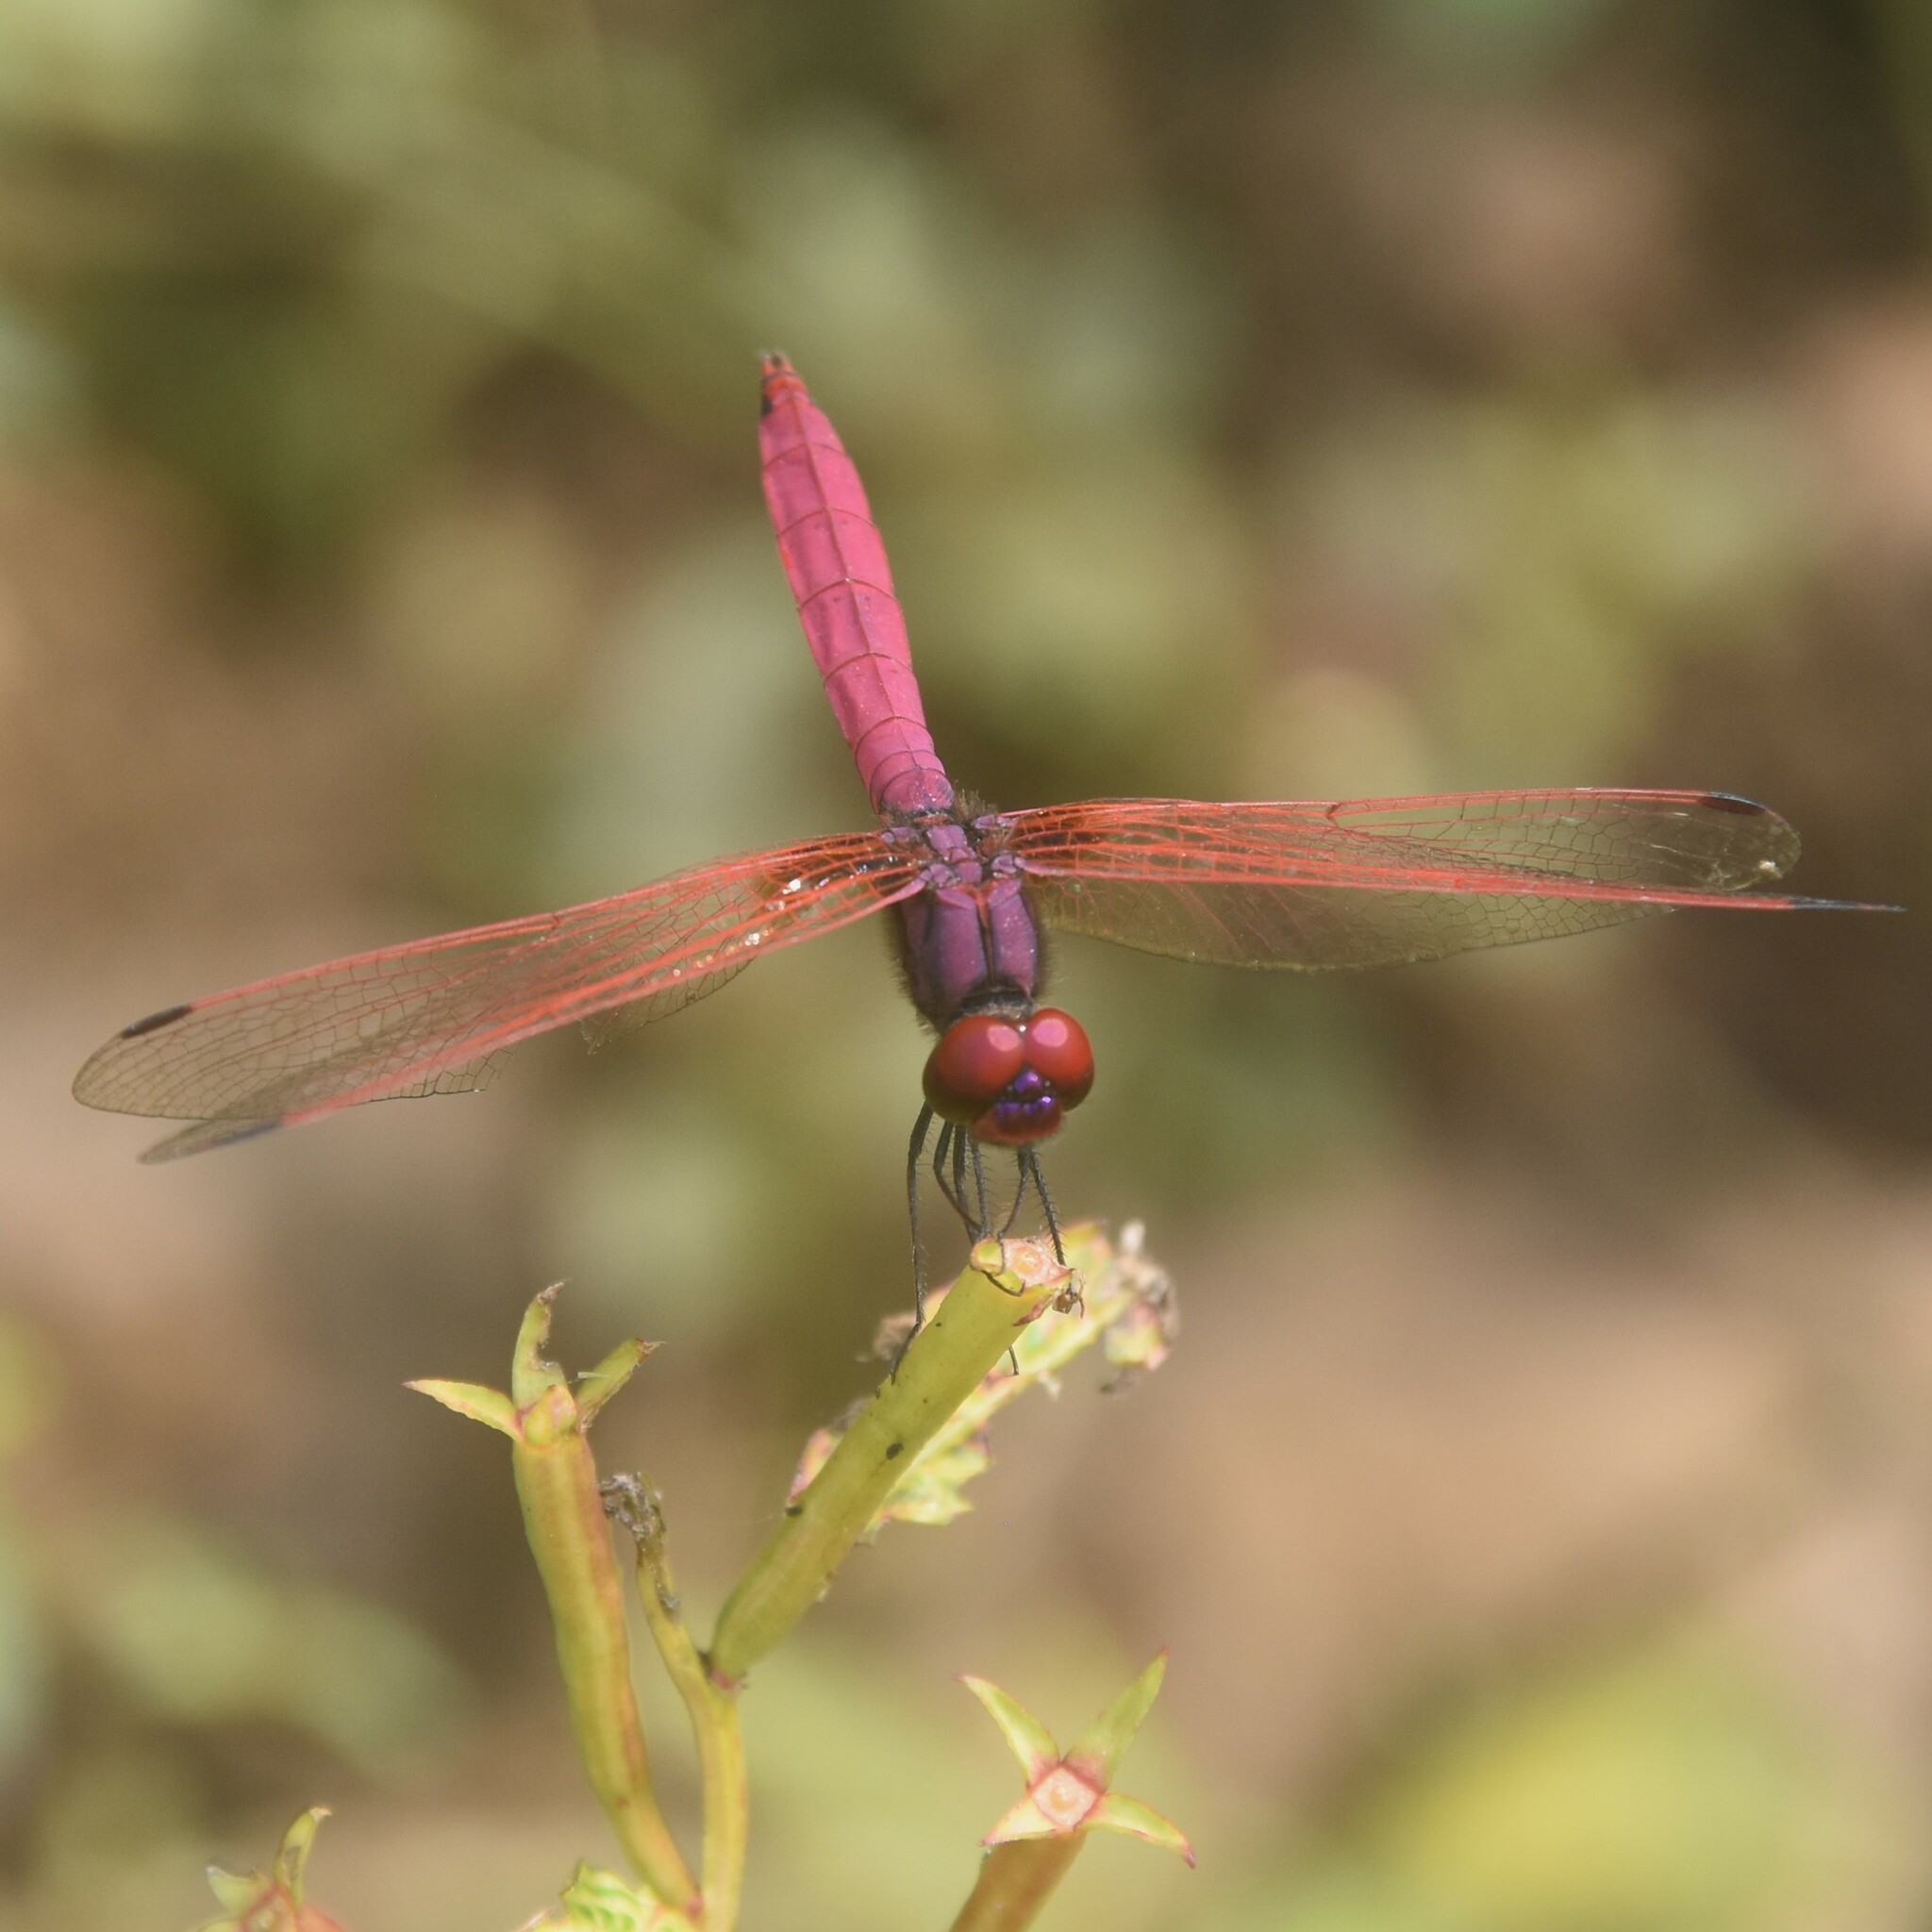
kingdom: Animalia
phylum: Arthropoda
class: Insecta
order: Odonata
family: Libellulidae
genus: Trithemis
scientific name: Trithemis aurora
